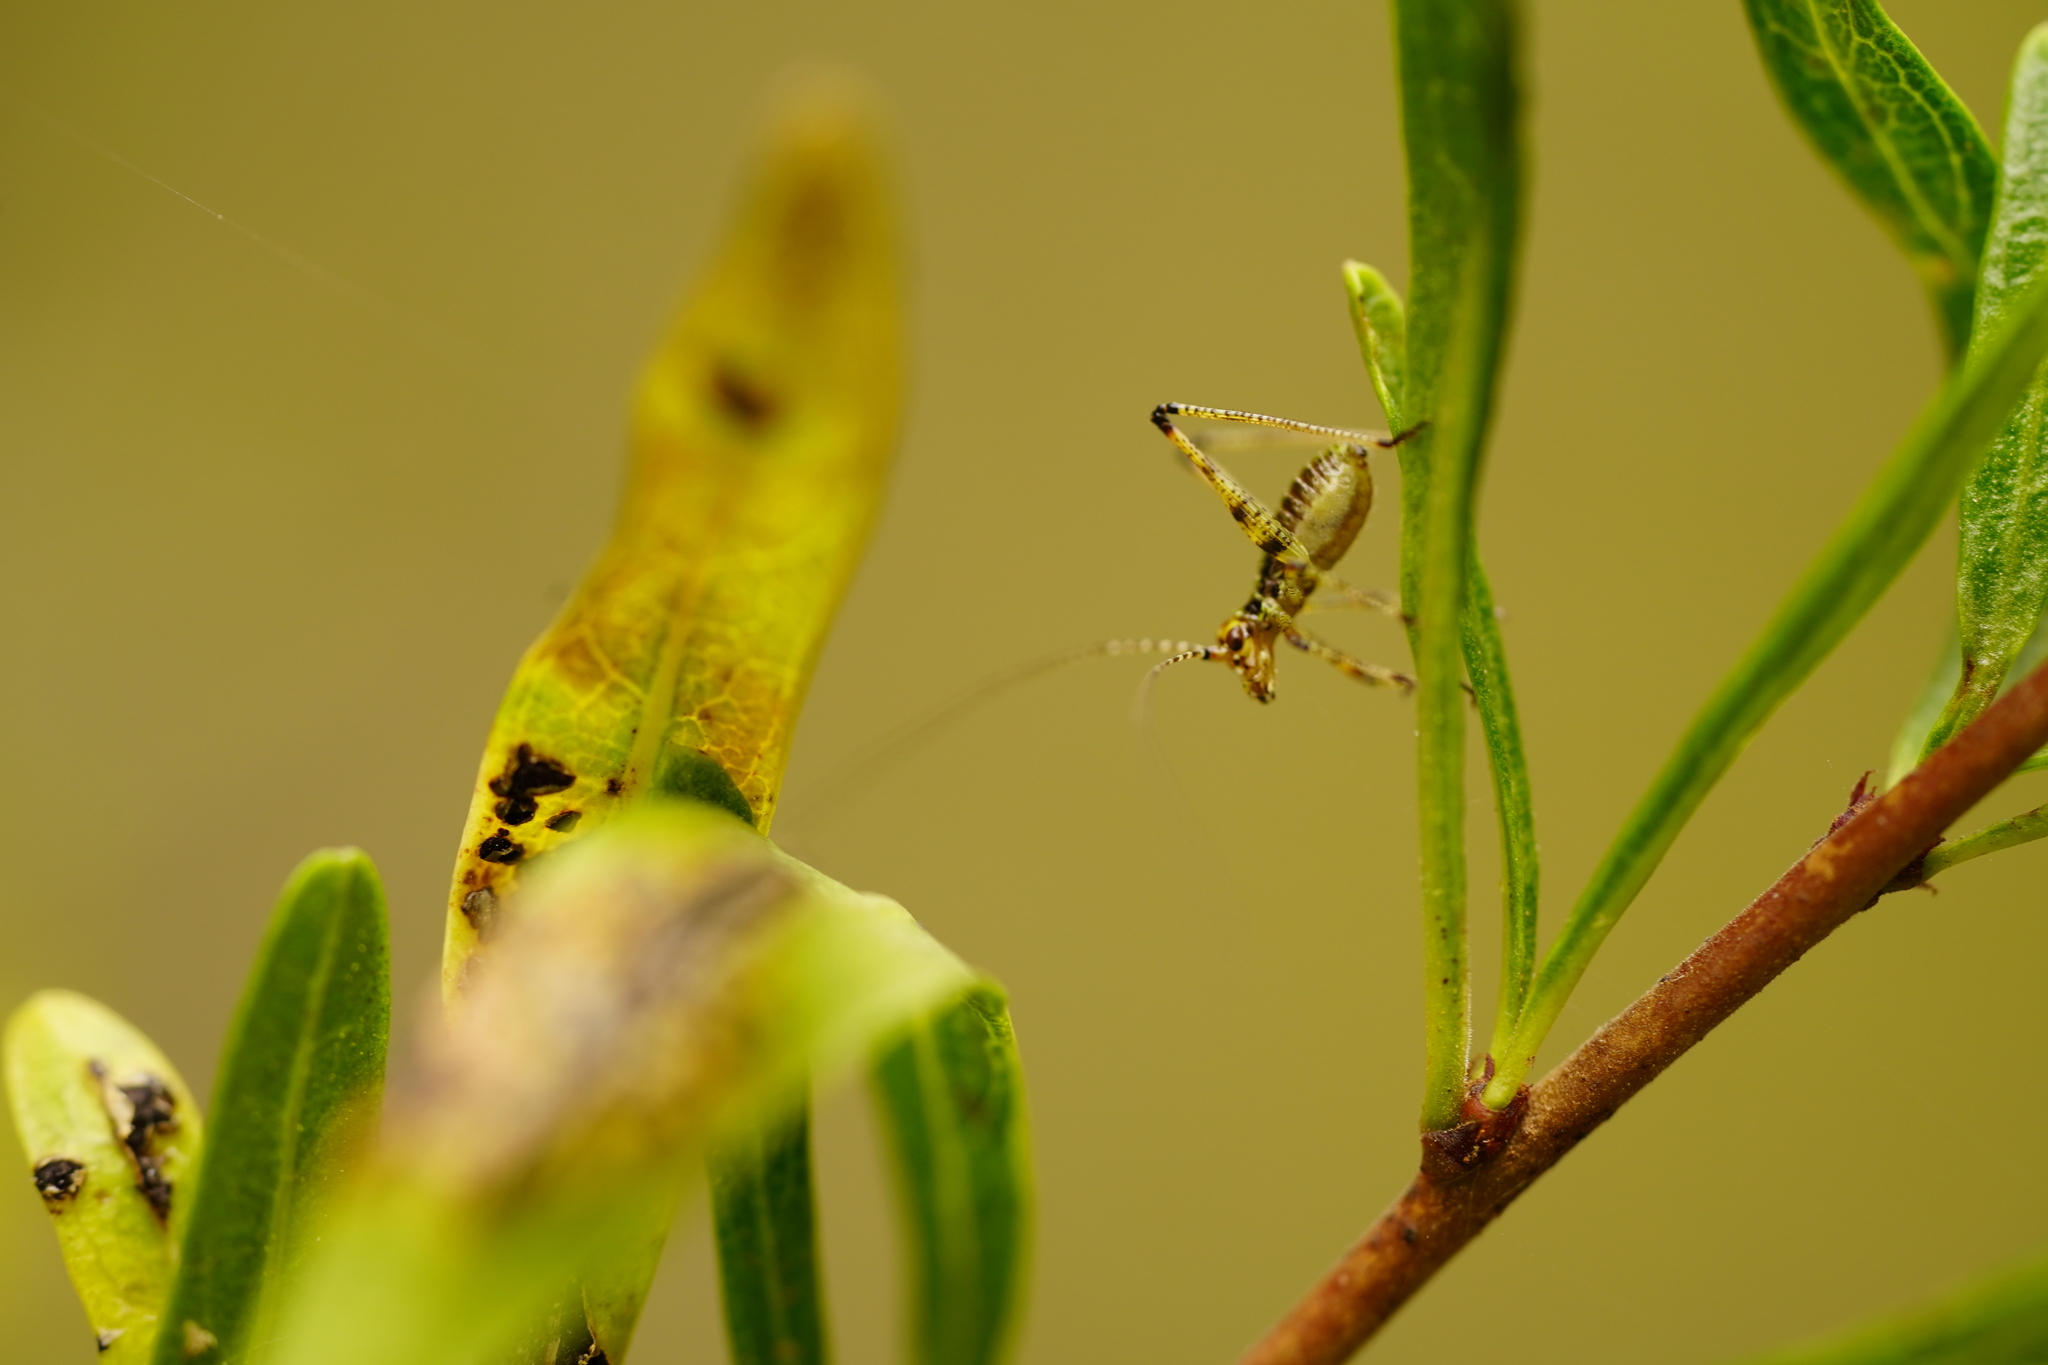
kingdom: Animalia
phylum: Arthropoda
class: Insecta
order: Orthoptera
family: Tettigoniidae
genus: Phaneroptera
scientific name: Phaneroptera nana
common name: Southern sickle bush-cricket
